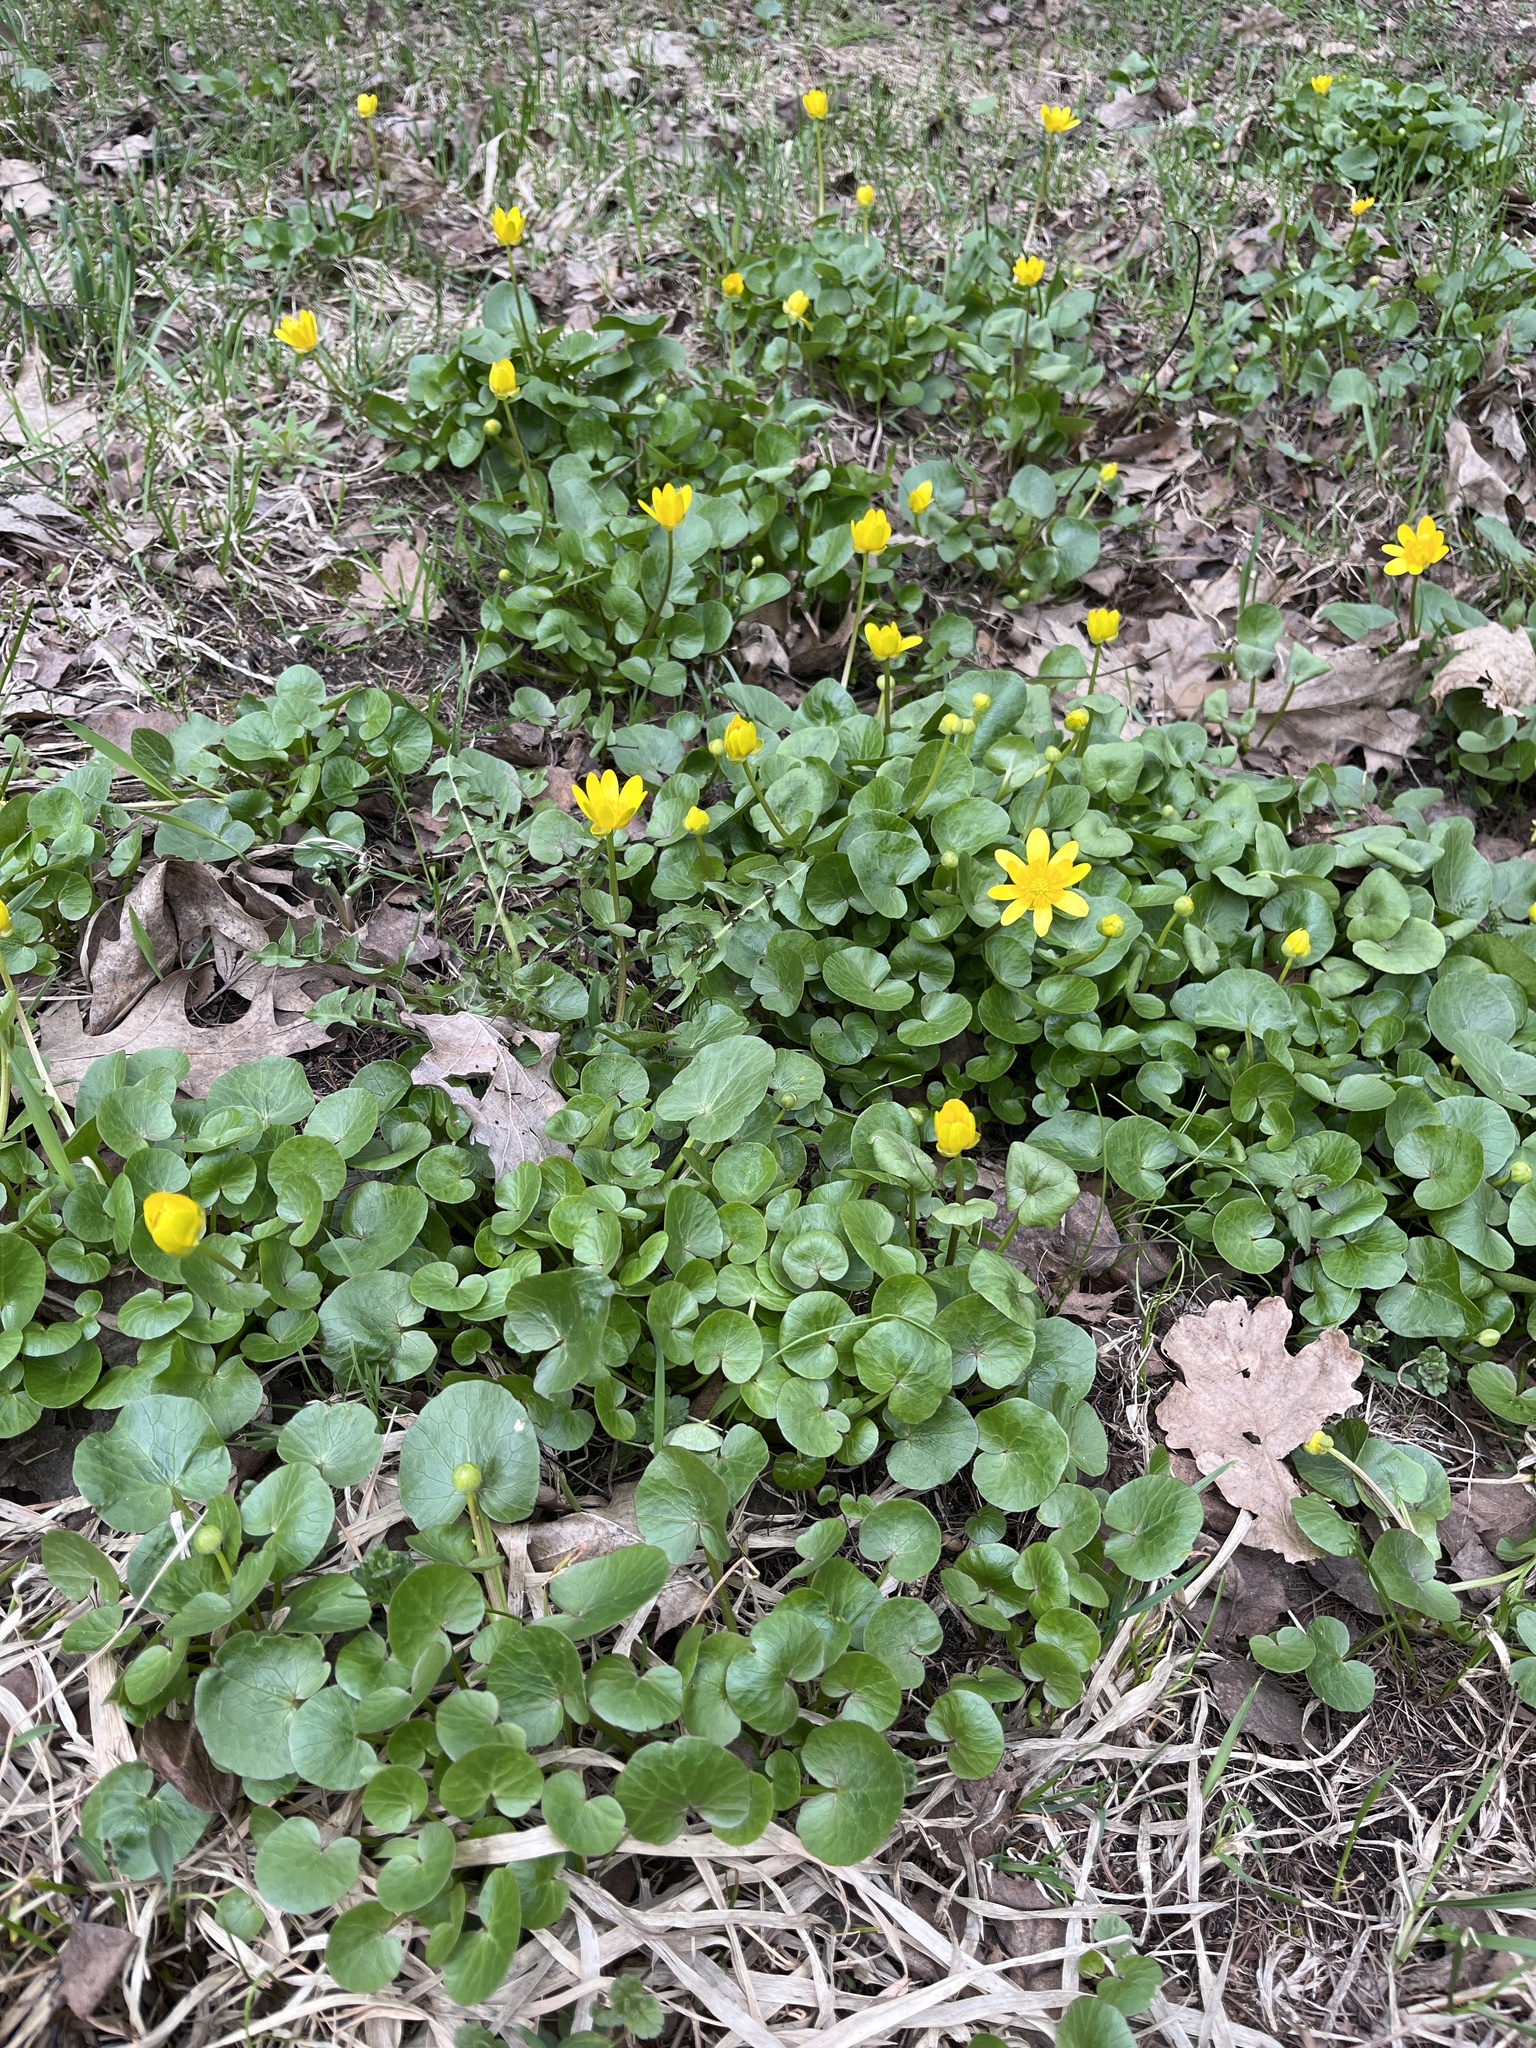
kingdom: Plantae
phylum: Tracheophyta
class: Magnoliopsida
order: Ranunculales
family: Ranunculaceae
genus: Ficaria
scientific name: Ficaria verna
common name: Lesser celandine
